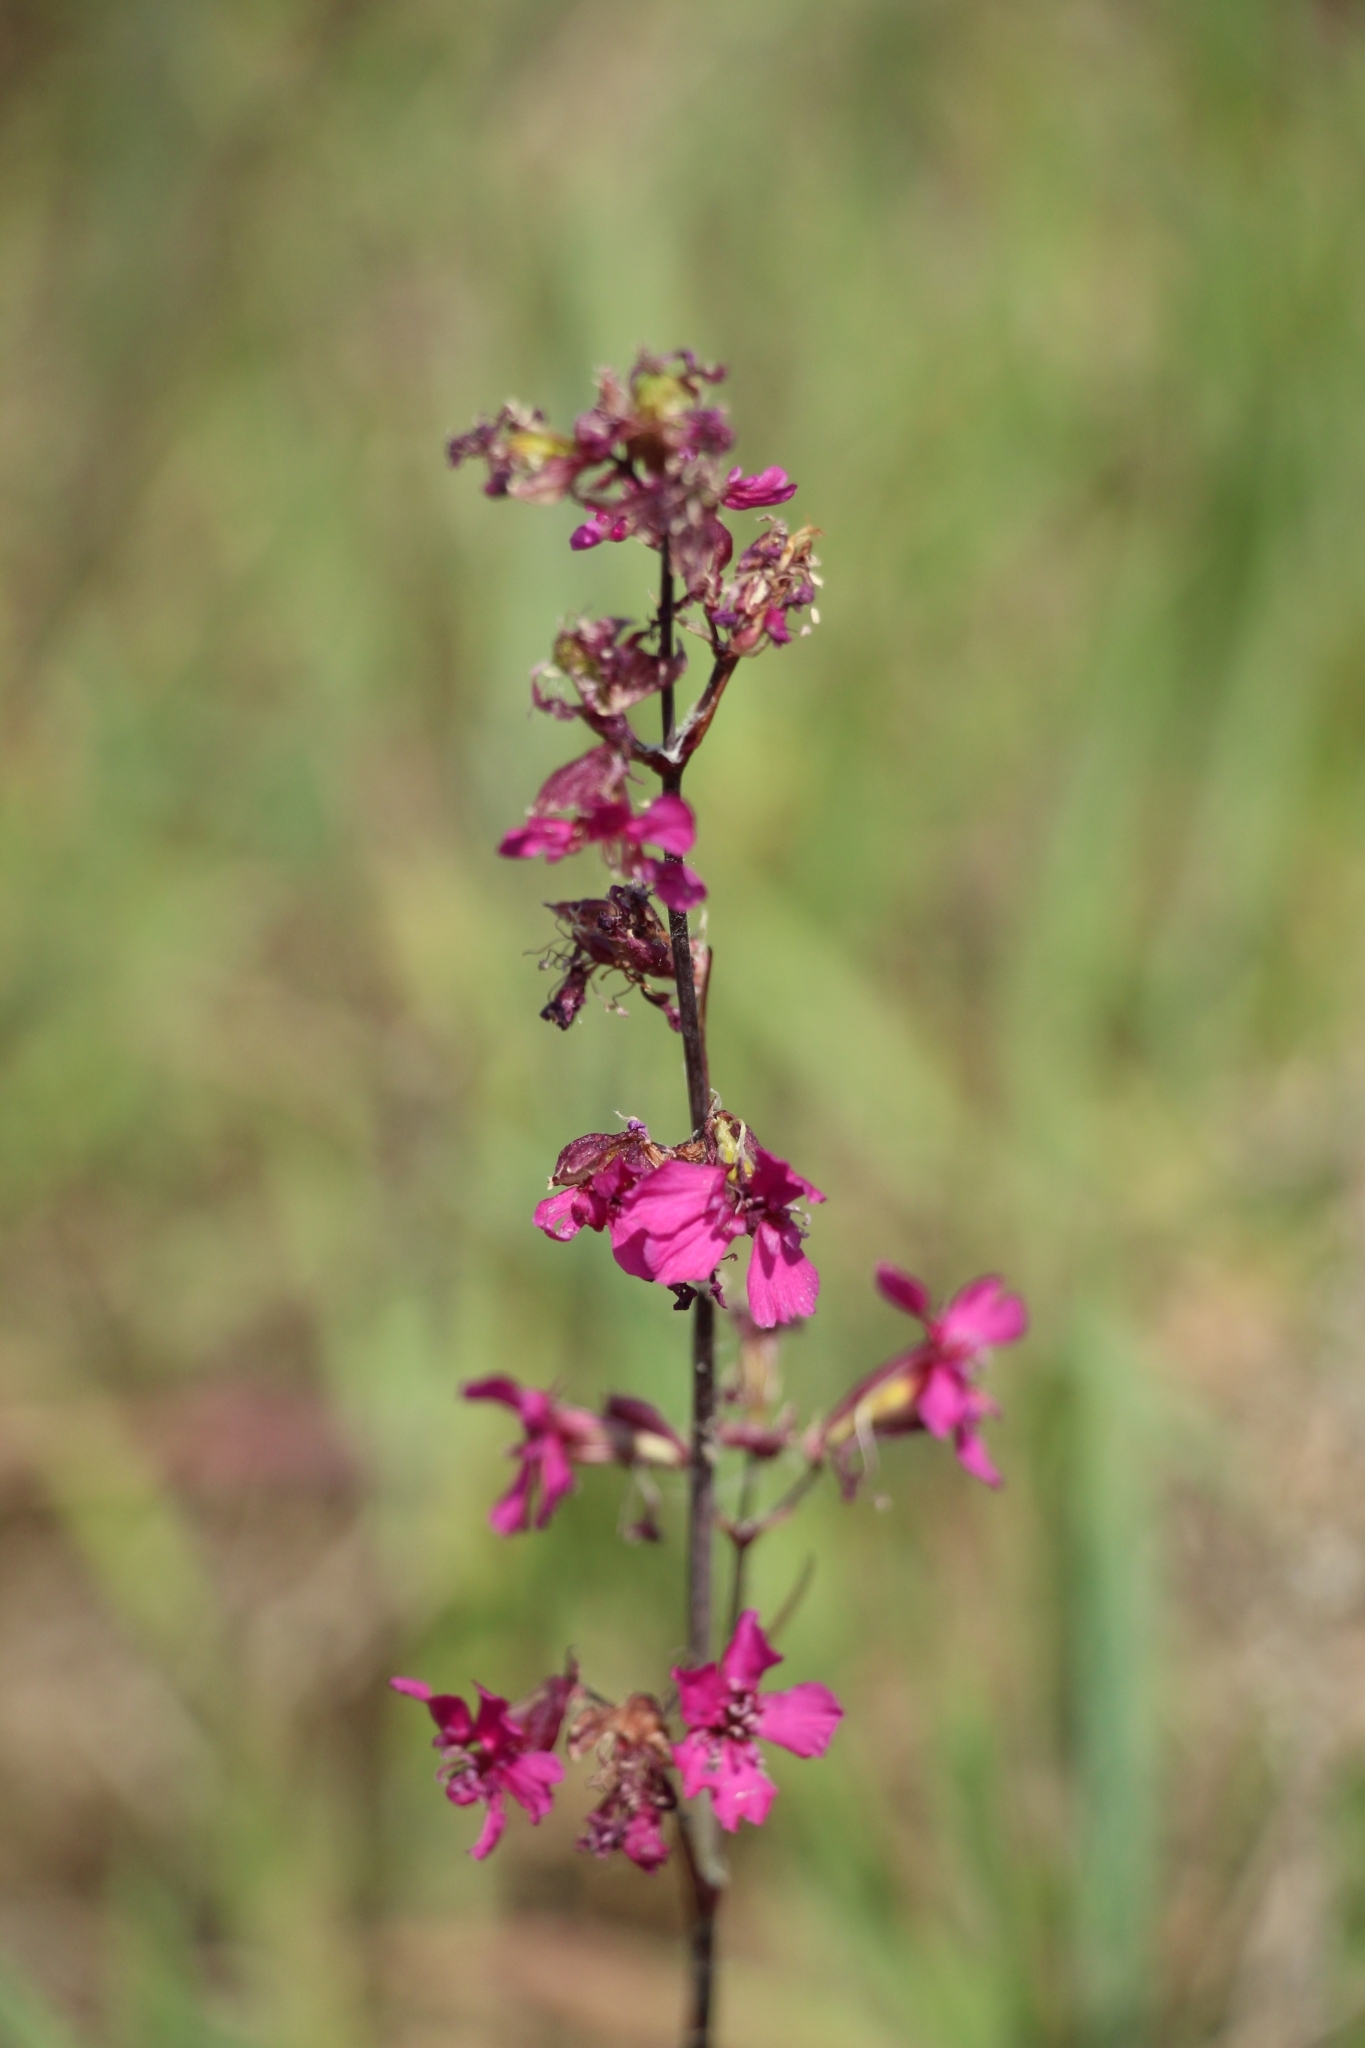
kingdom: Plantae
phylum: Tracheophyta
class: Magnoliopsida
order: Caryophyllales
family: Caryophyllaceae
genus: Viscaria
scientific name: Viscaria vulgaris
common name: Clammy campion
